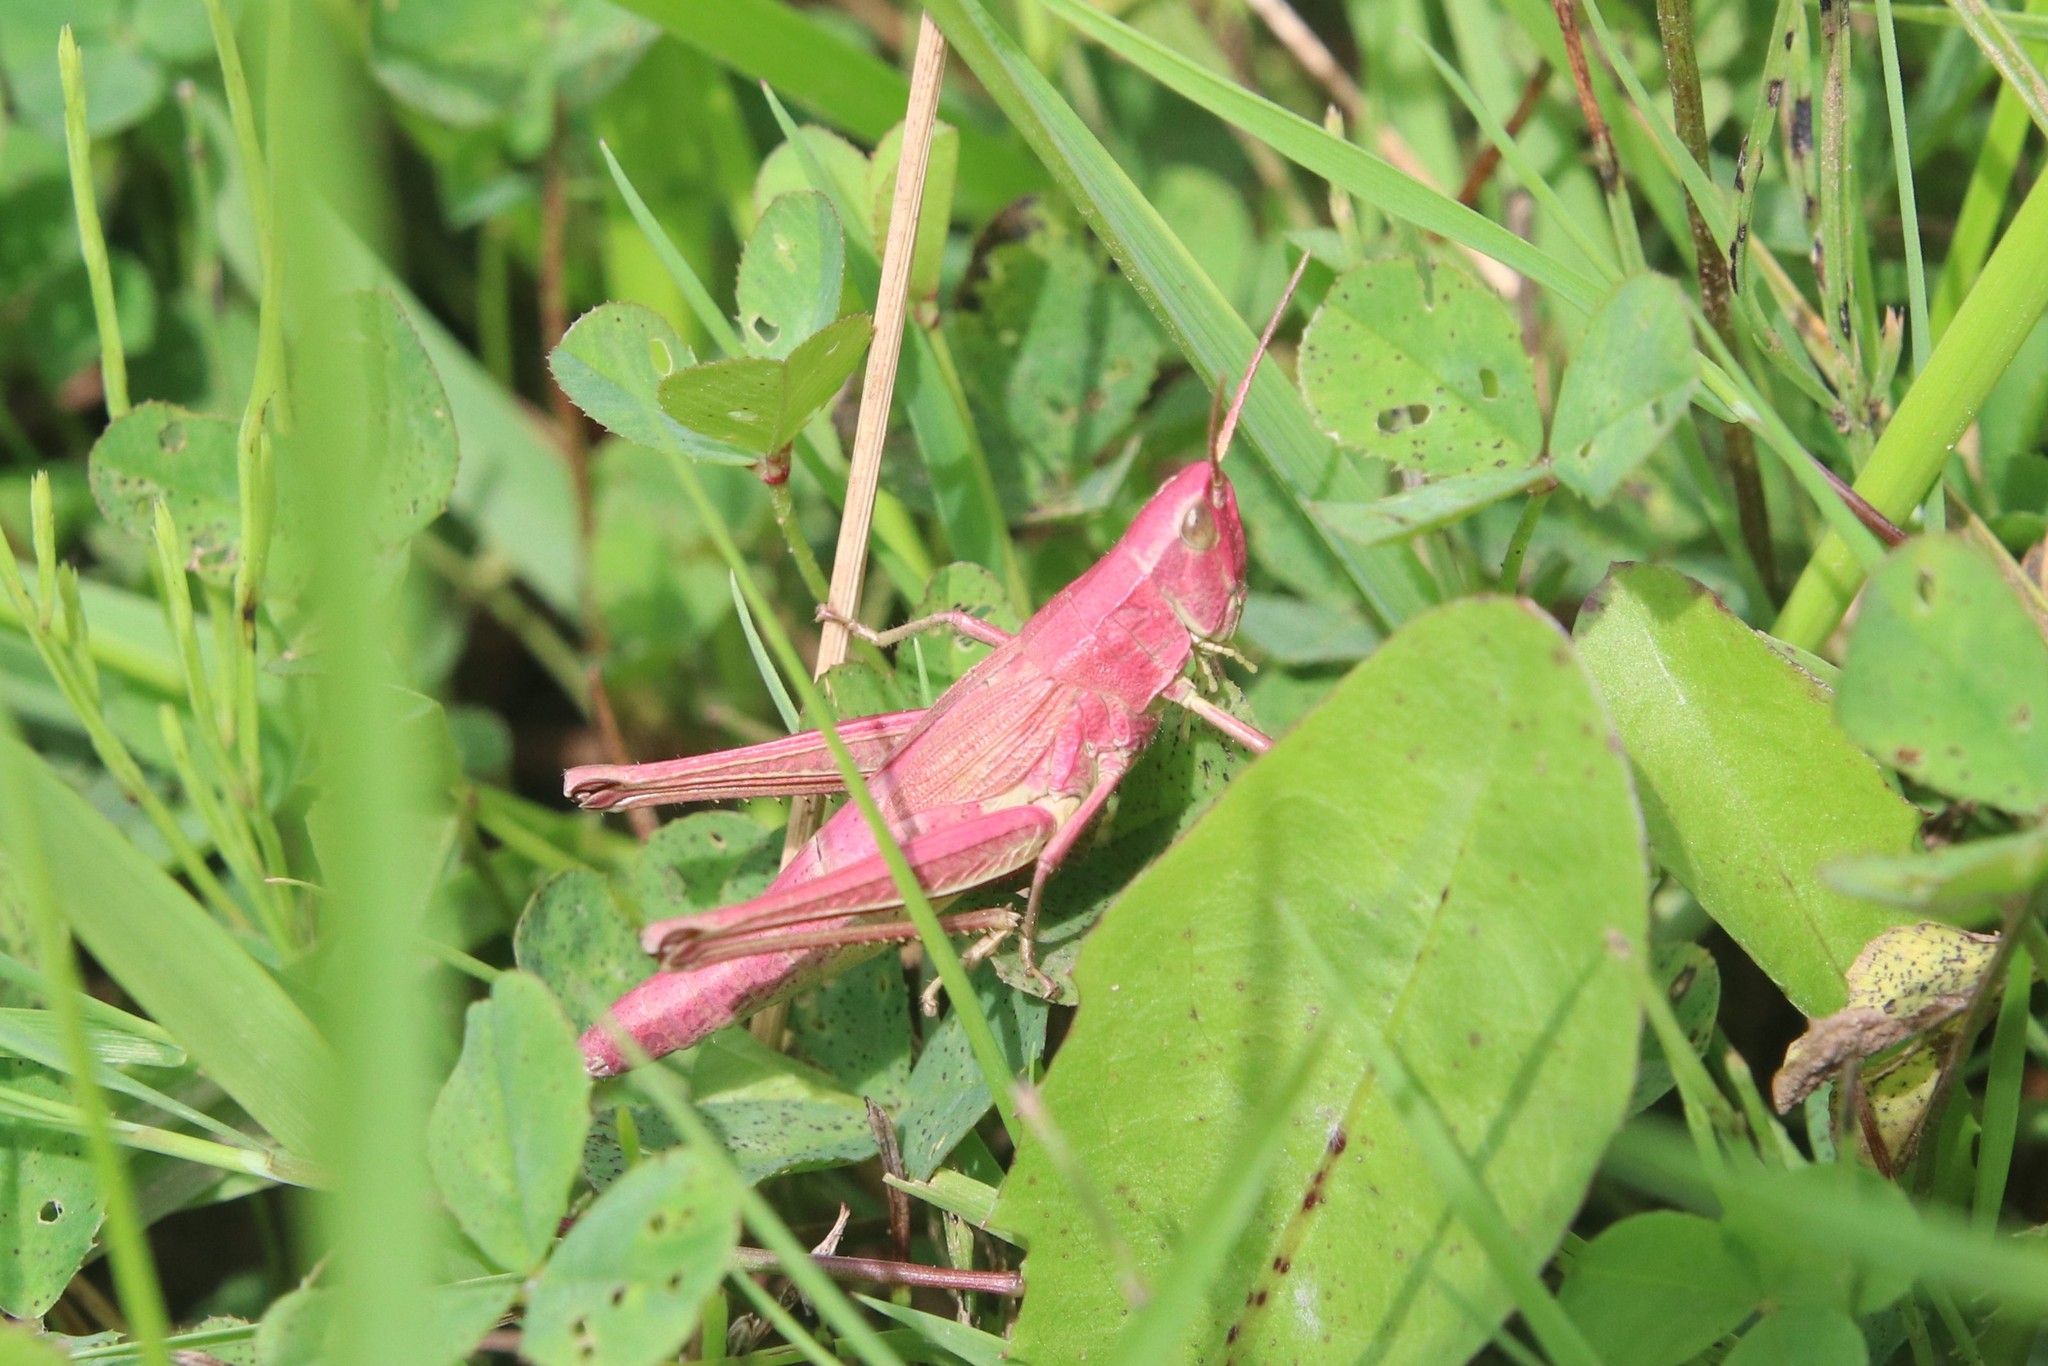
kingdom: Animalia
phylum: Arthropoda
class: Insecta
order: Orthoptera
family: Acrididae
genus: Chrysochraon
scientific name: Chrysochraon dispar
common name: Large gold grasshopper
